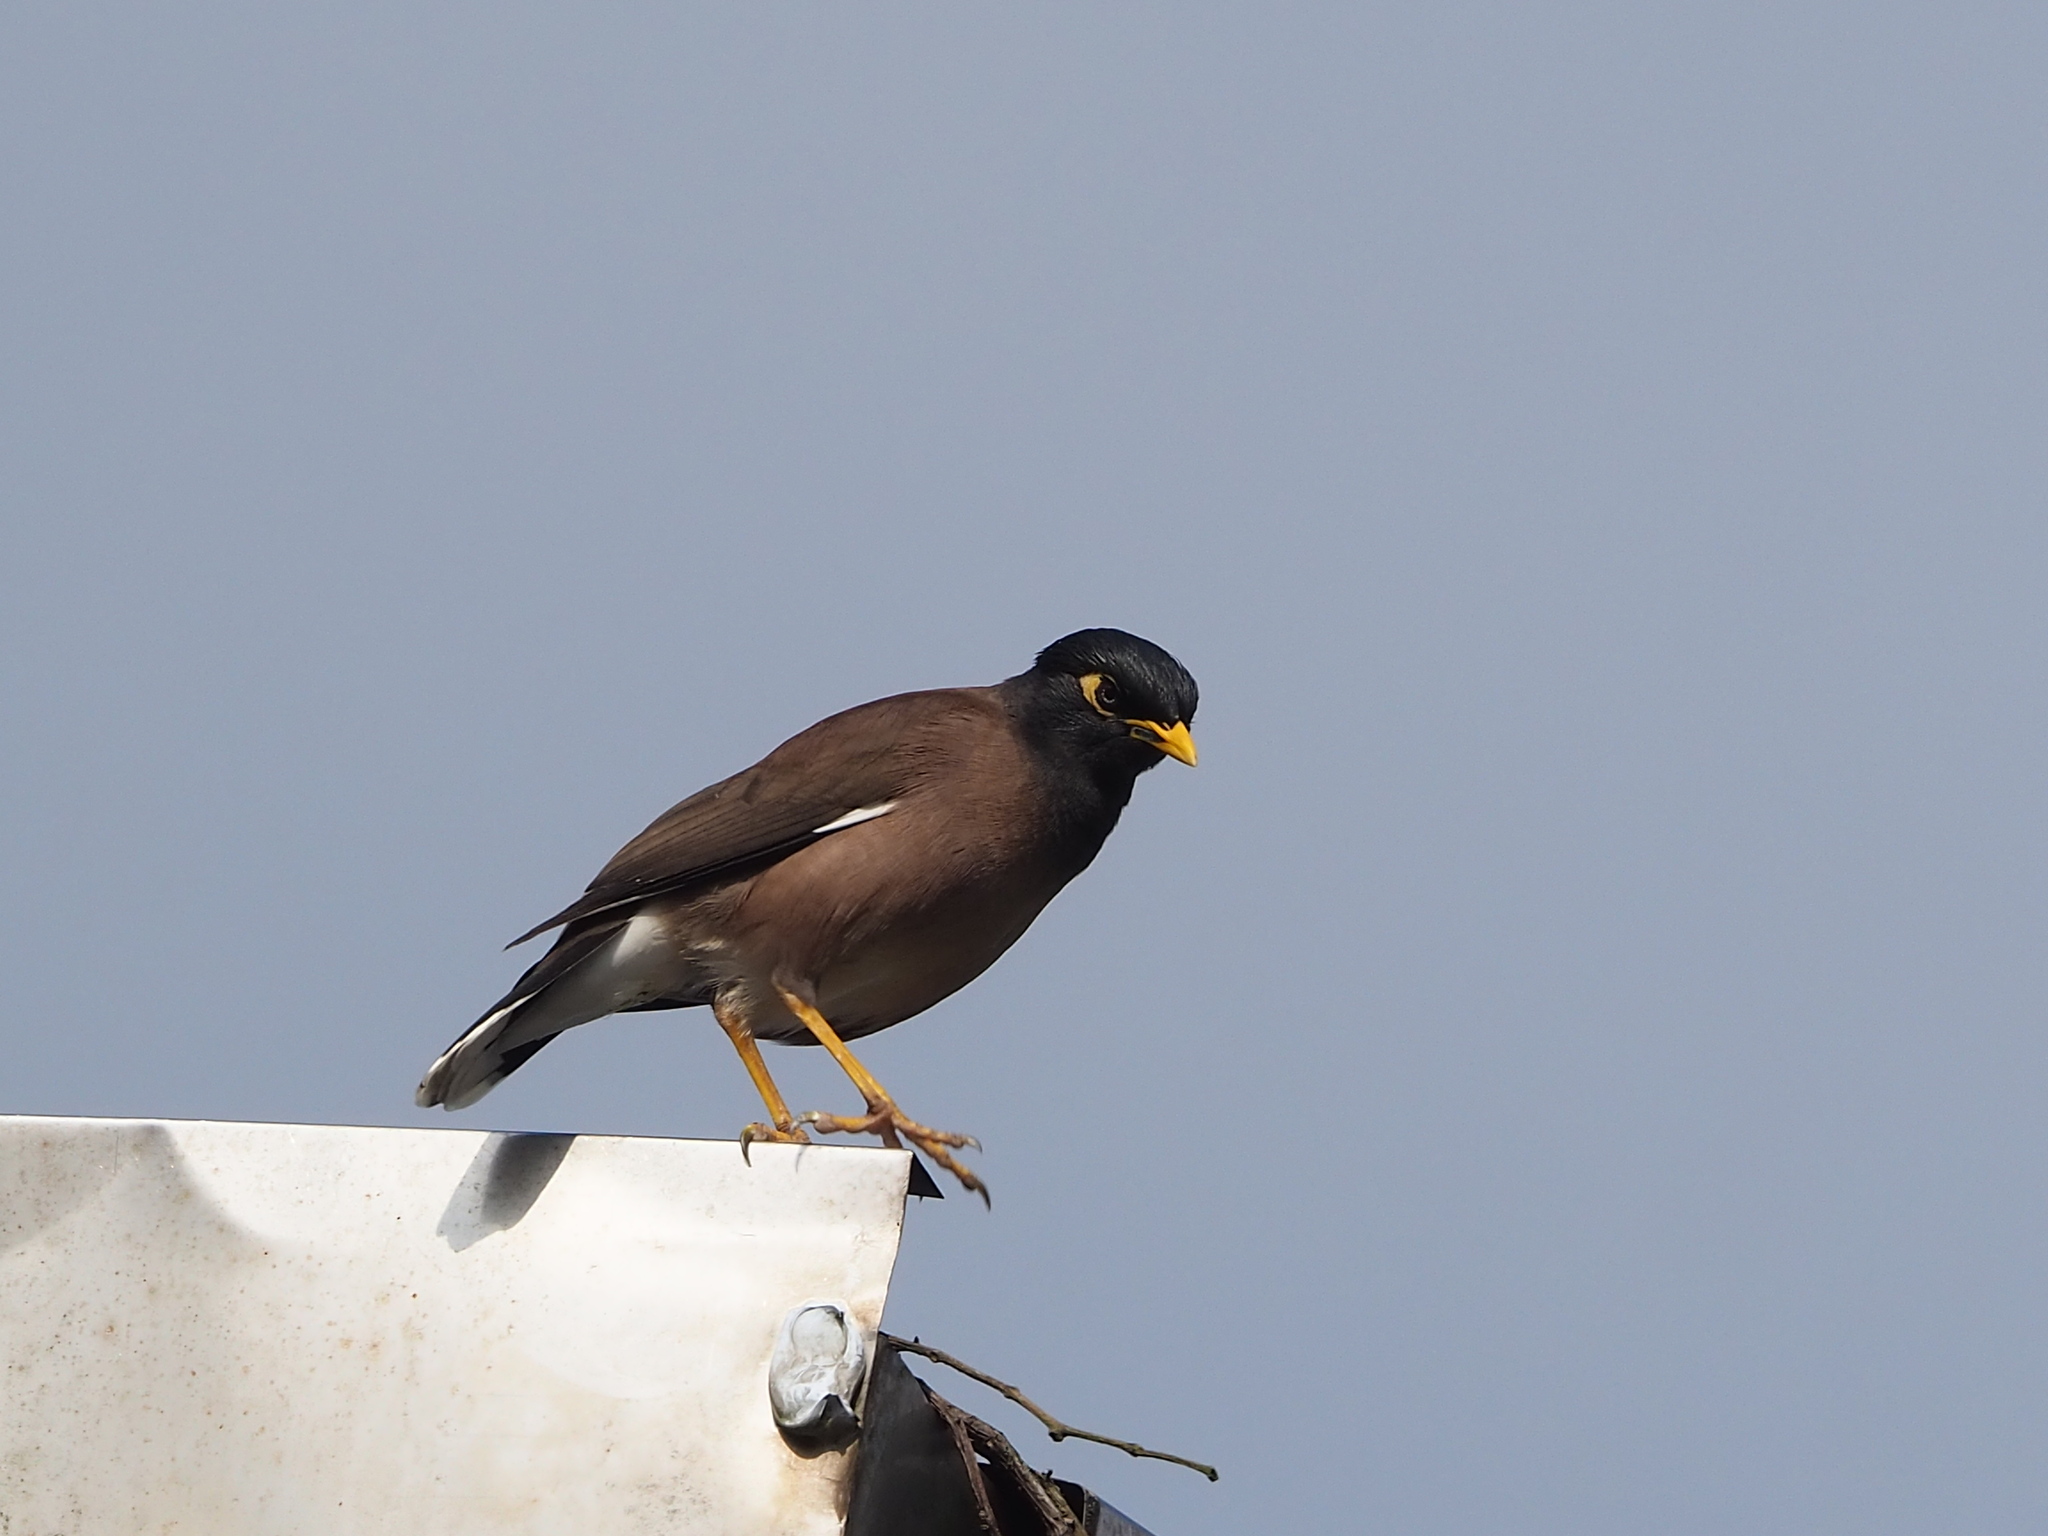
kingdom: Animalia
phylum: Chordata
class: Aves
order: Passeriformes
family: Sturnidae
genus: Acridotheres
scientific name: Acridotheres tristis
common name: Common myna
